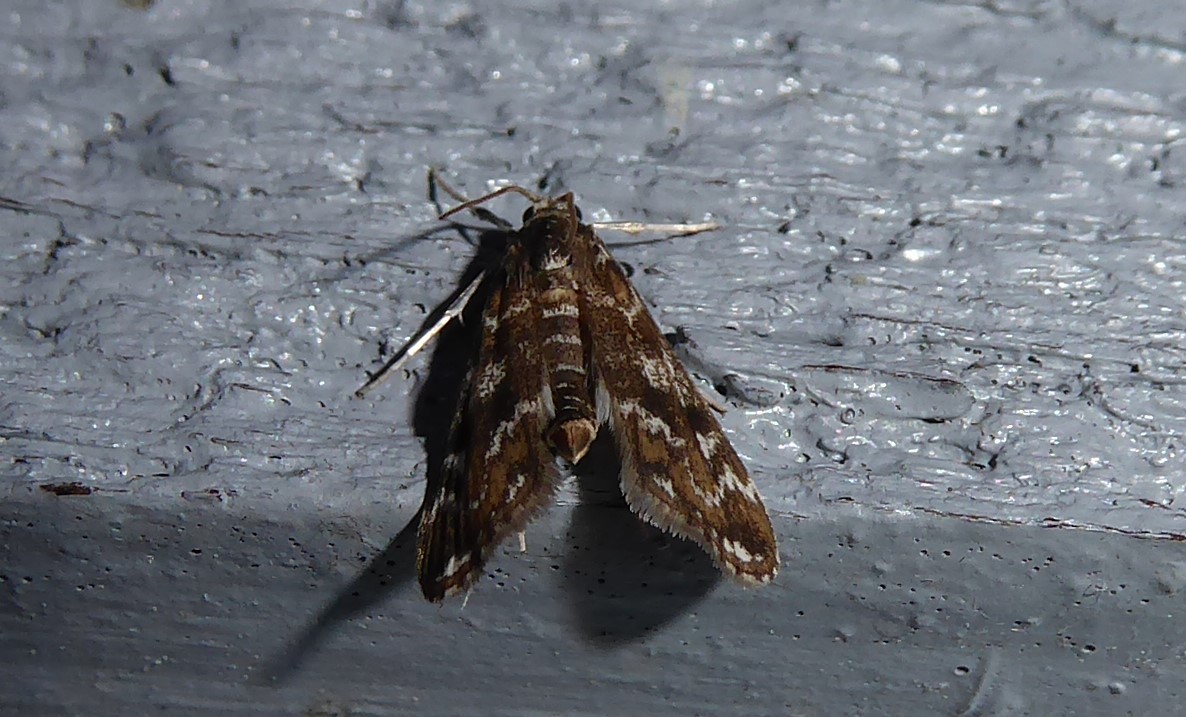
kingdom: Animalia
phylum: Arthropoda
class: Insecta
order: Lepidoptera
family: Crambidae
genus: Hygraula
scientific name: Hygraula nitens
